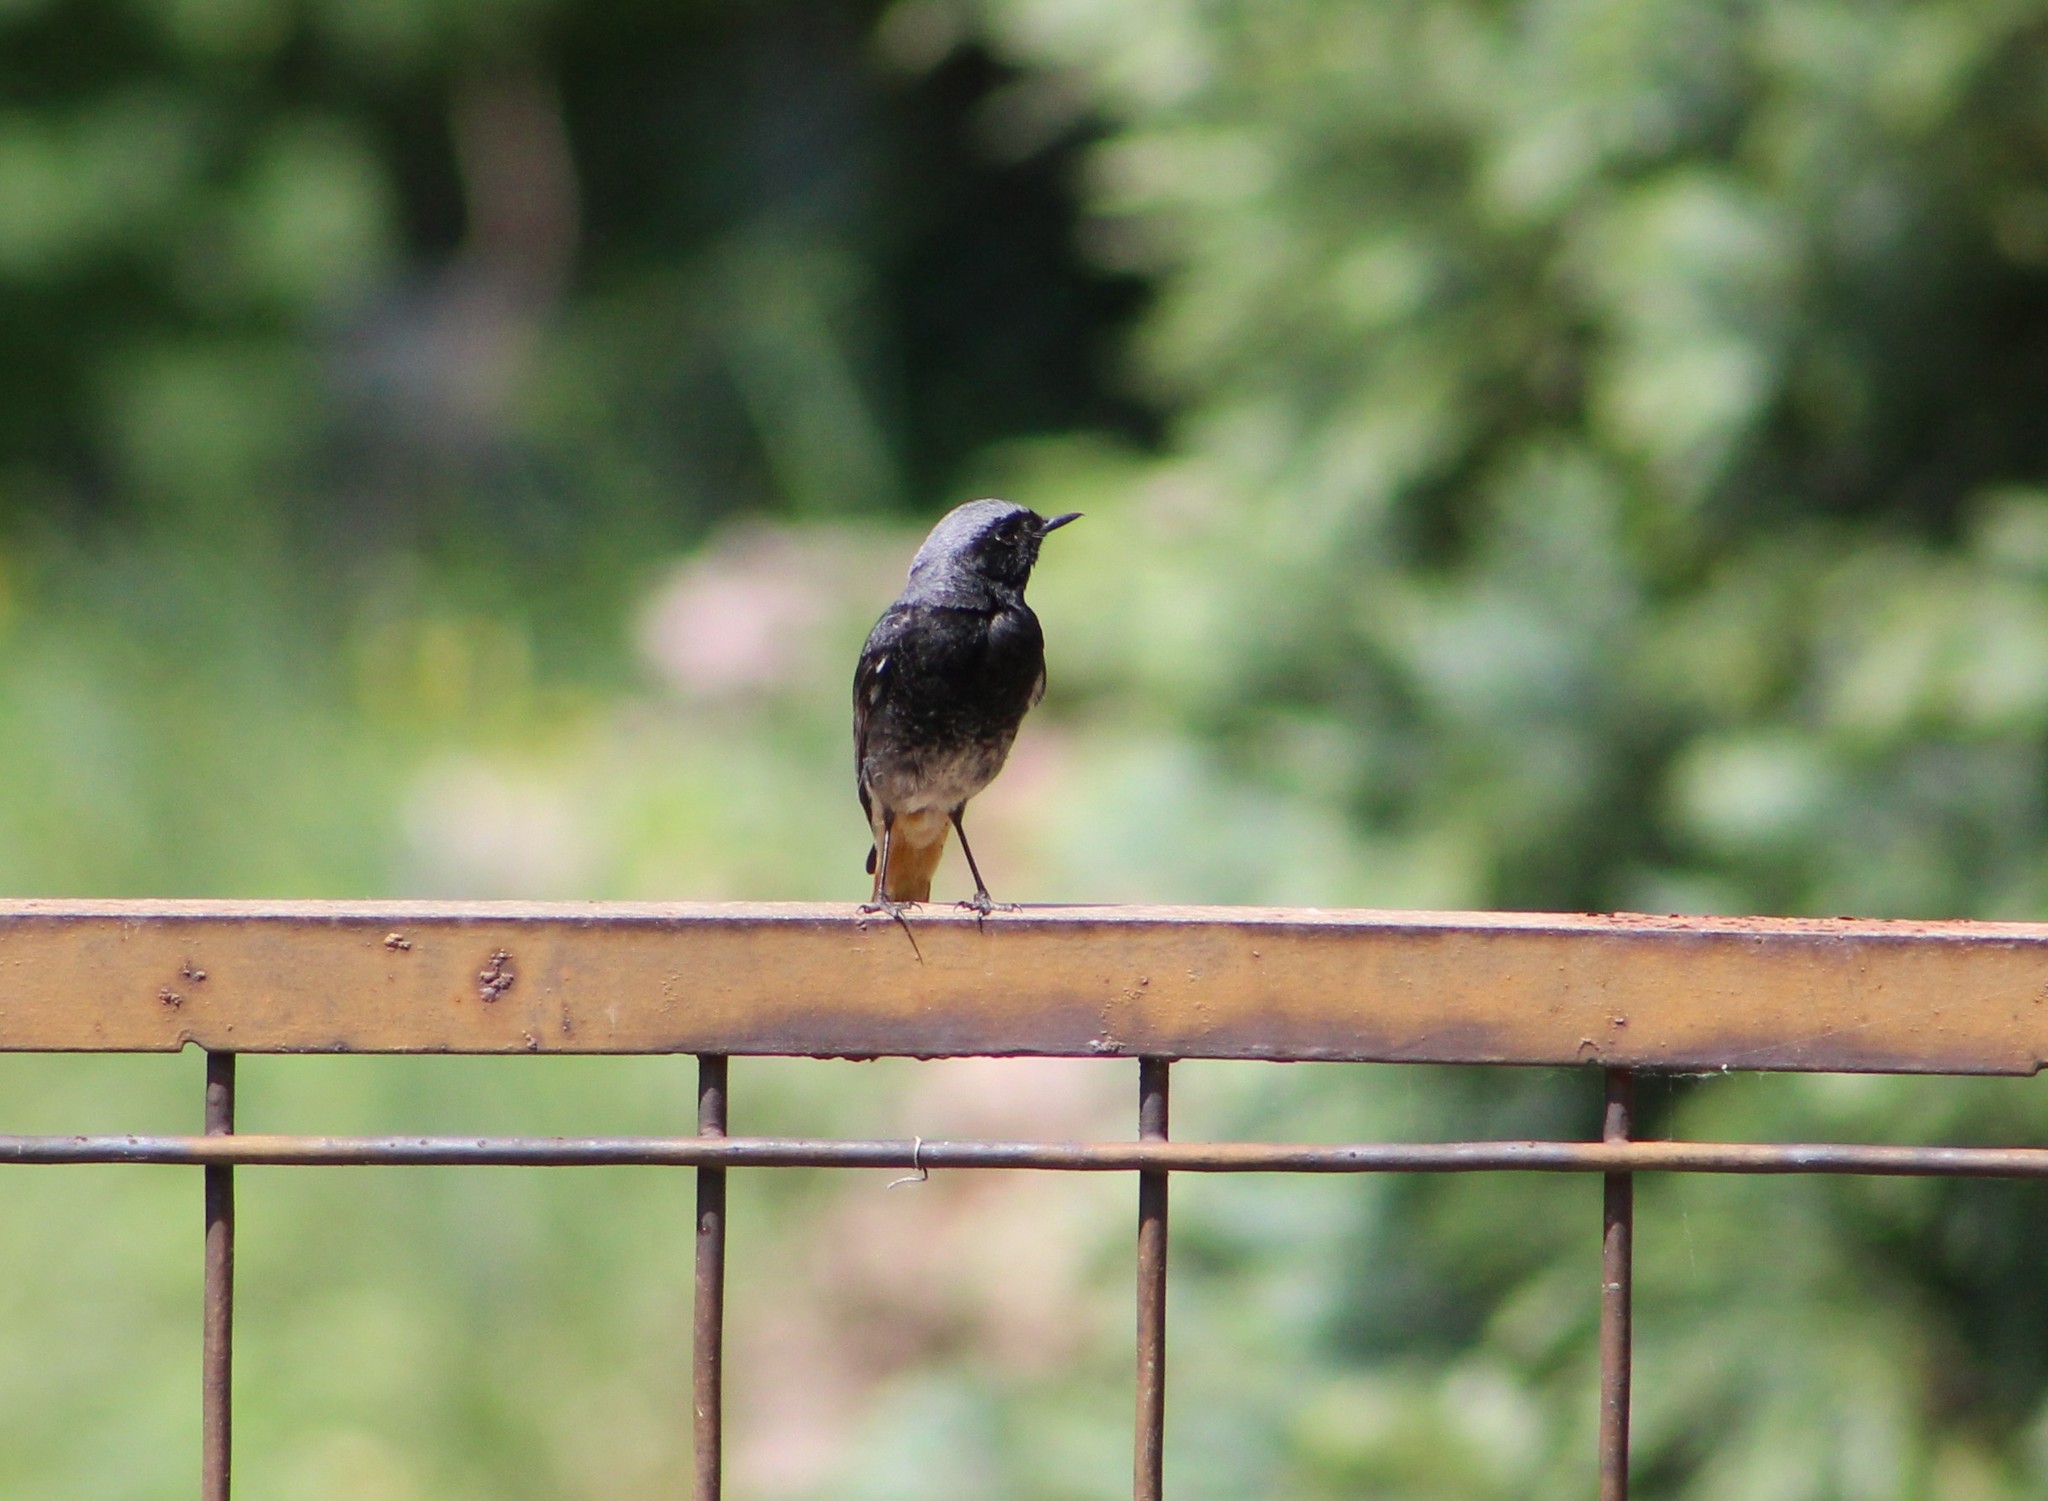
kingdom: Animalia
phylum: Chordata
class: Aves
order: Passeriformes
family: Muscicapidae
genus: Phoenicurus
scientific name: Phoenicurus ochruros
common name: Black redstart
